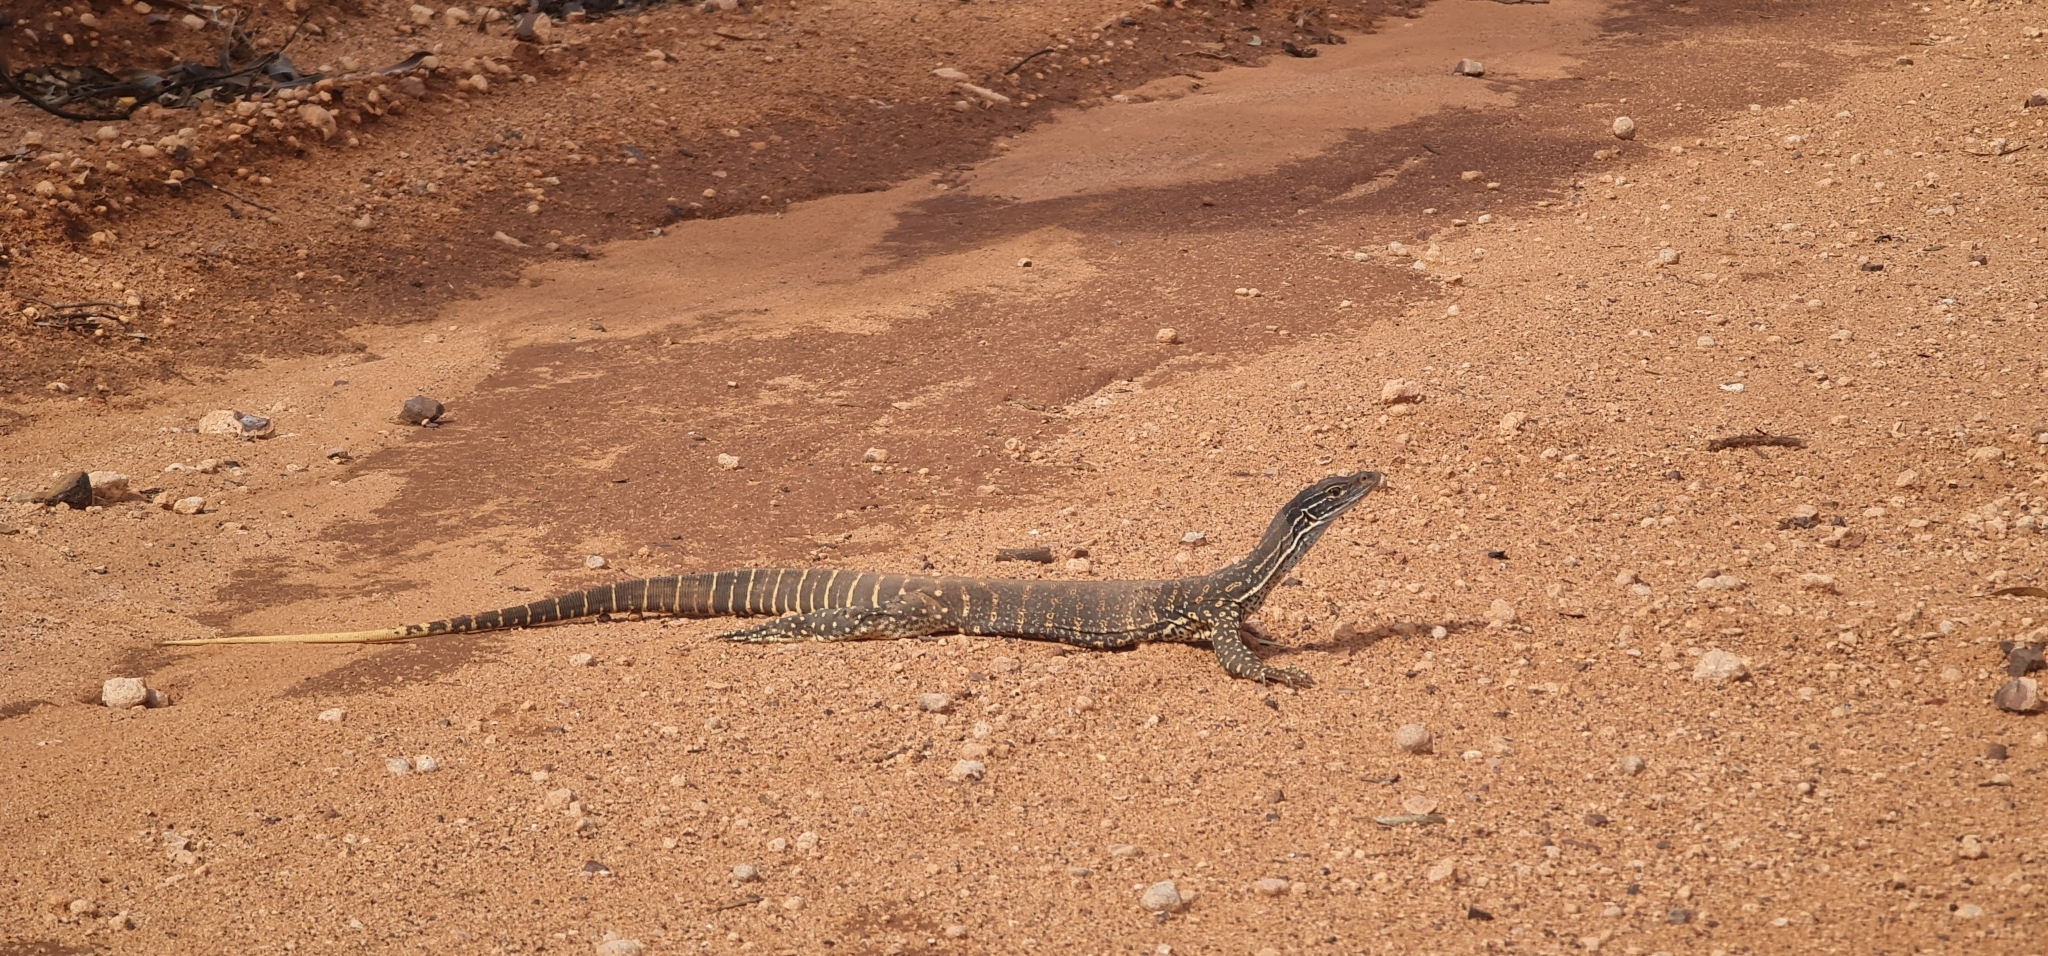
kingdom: Animalia
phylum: Chordata
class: Squamata
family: Varanidae
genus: Varanus
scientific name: Varanus gouldii
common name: Gould's goanna
